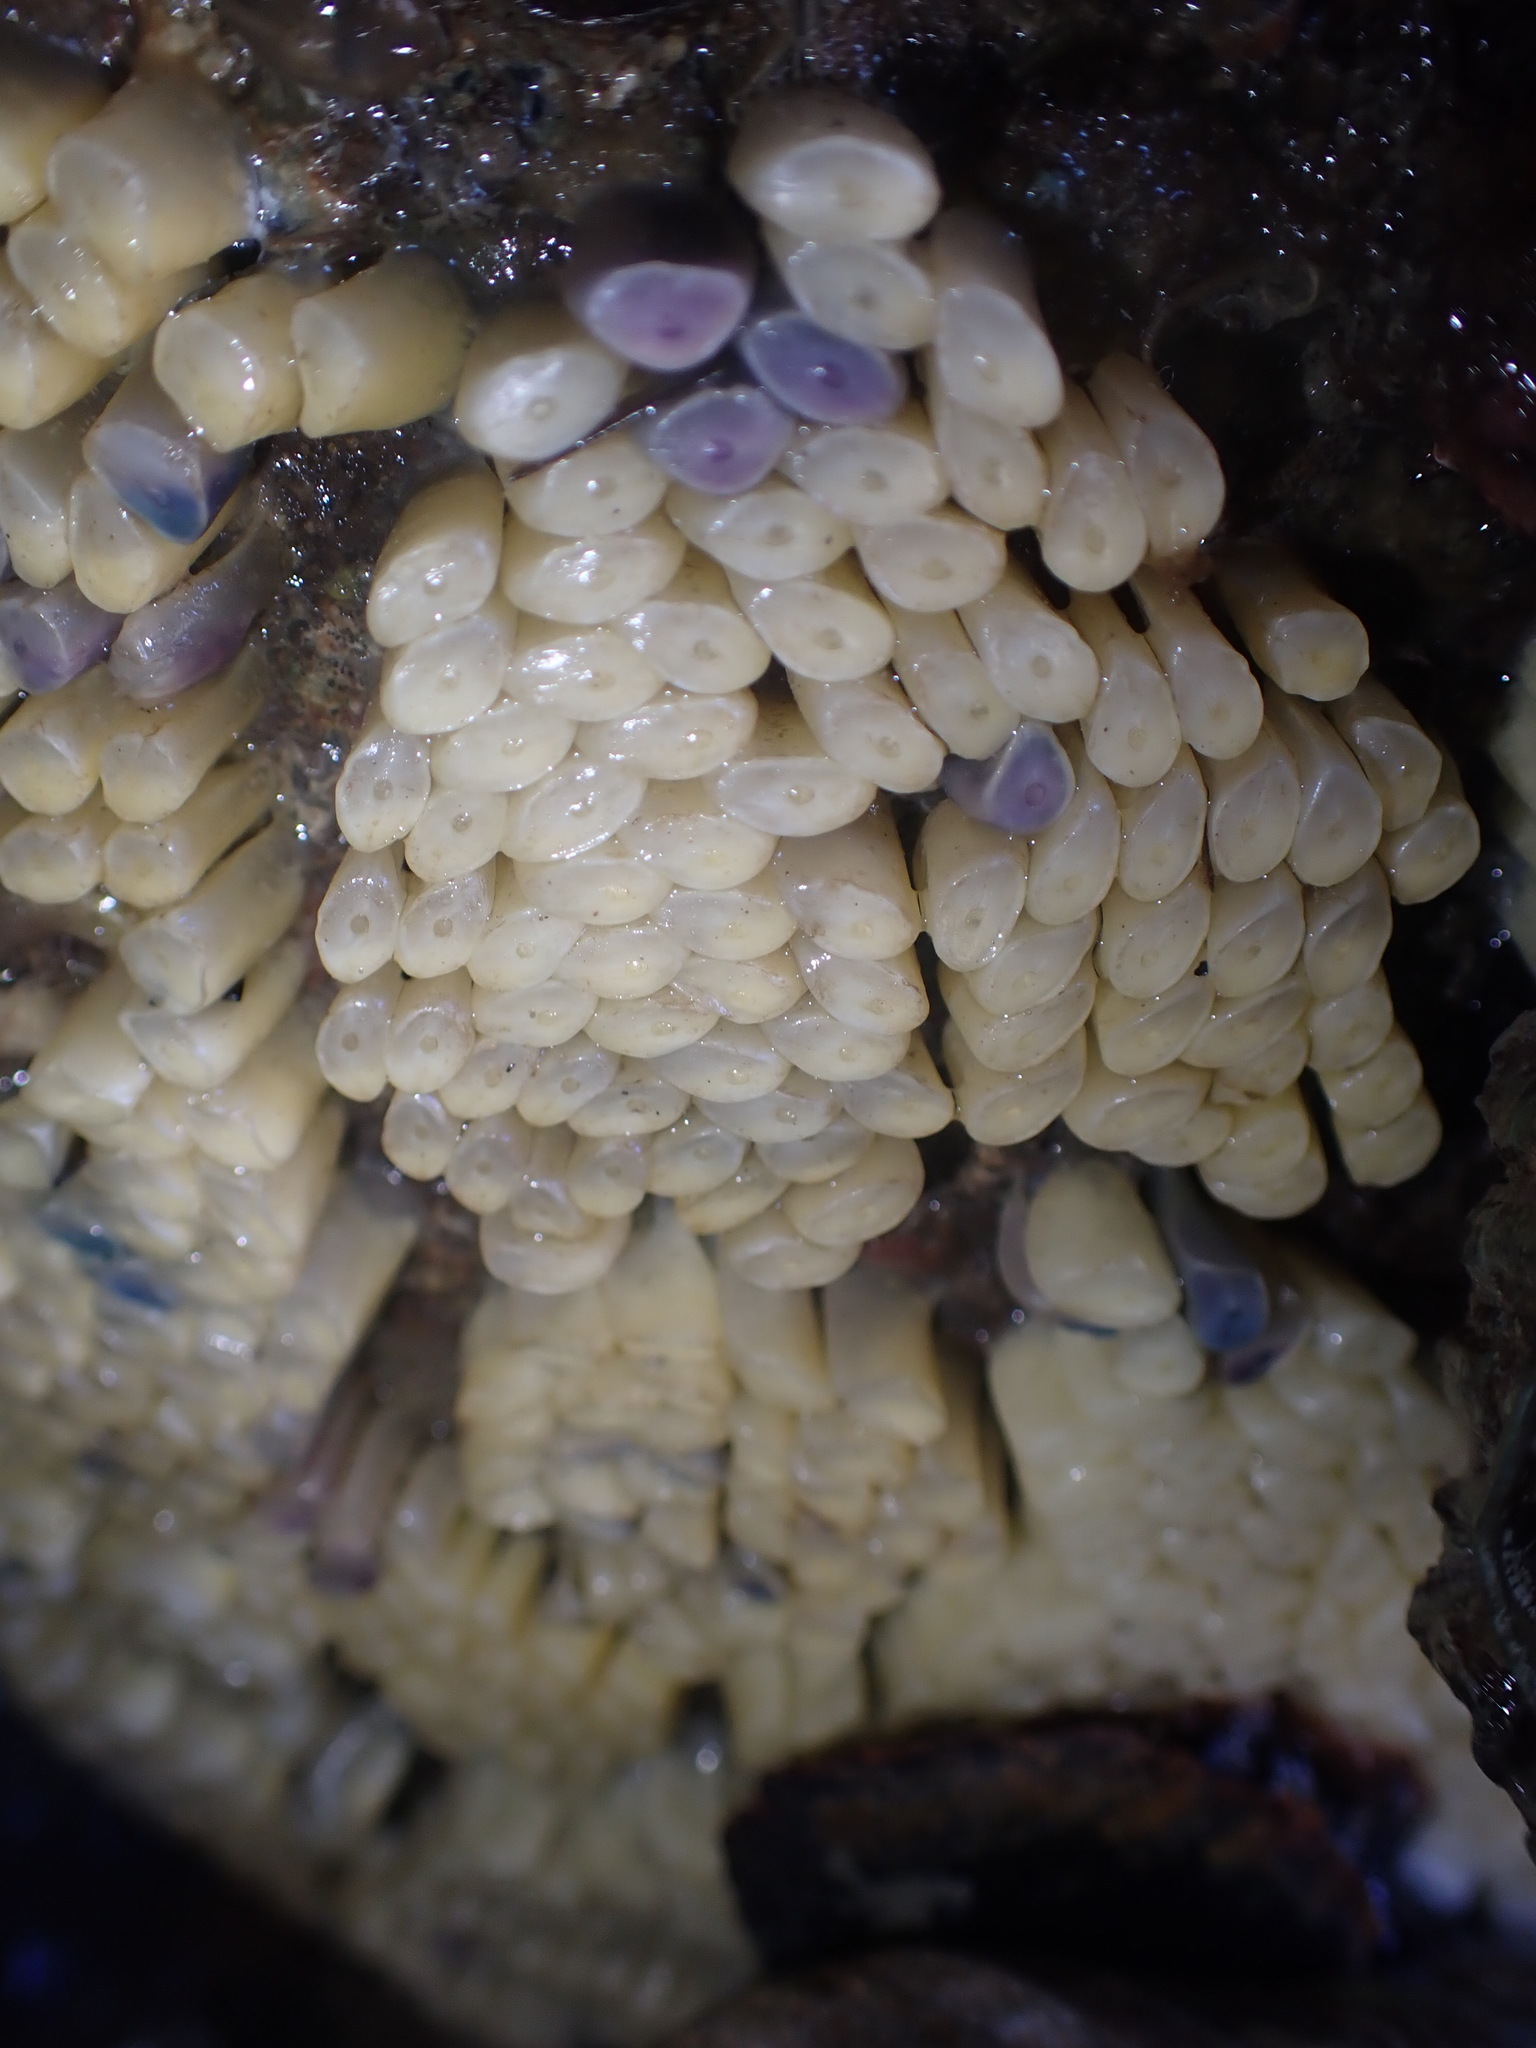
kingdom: Animalia
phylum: Mollusca
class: Gastropoda
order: Neogastropoda
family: Muricidae
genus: Dicathais
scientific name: Dicathais orbita
